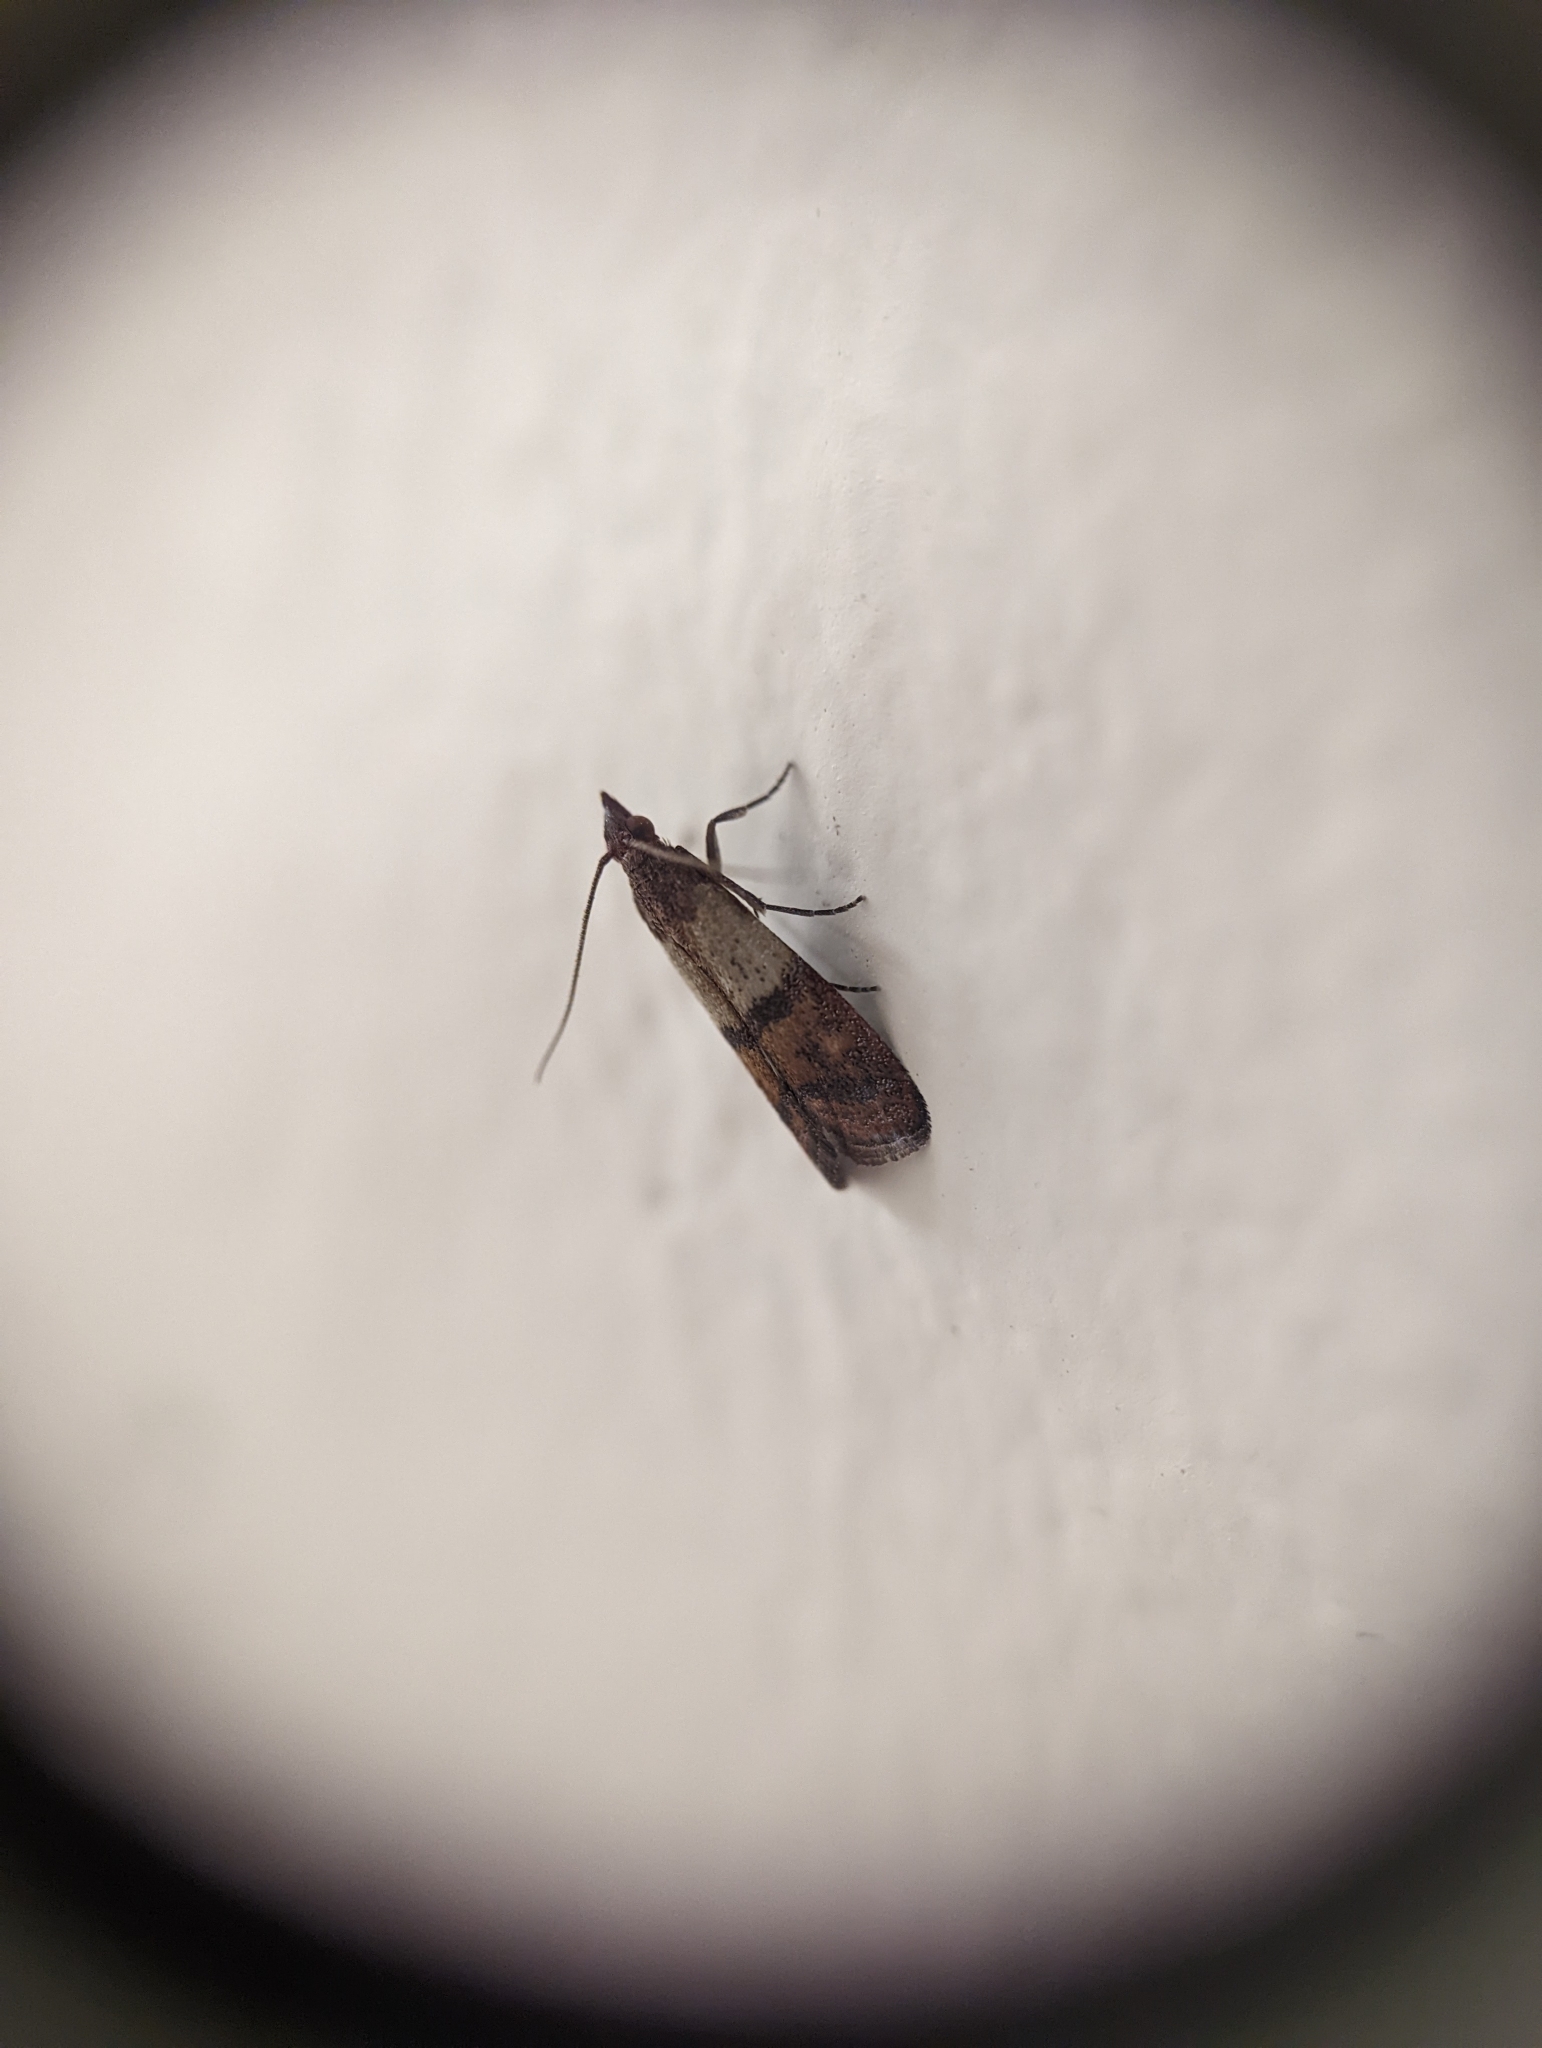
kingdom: Animalia
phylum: Arthropoda
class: Insecta
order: Lepidoptera
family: Pyralidae
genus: Plodia
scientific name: Plodia interpunctella
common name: Indian meal moth
